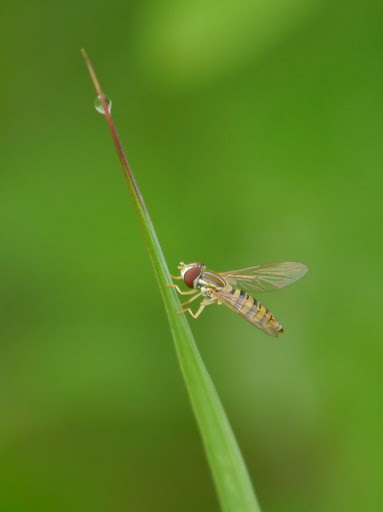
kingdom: Animalia
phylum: Arthropoda
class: Insecta
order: Diptera
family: Syrphidae
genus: Toxomerus
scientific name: Toxomerus politus
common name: Maize calligrapher
